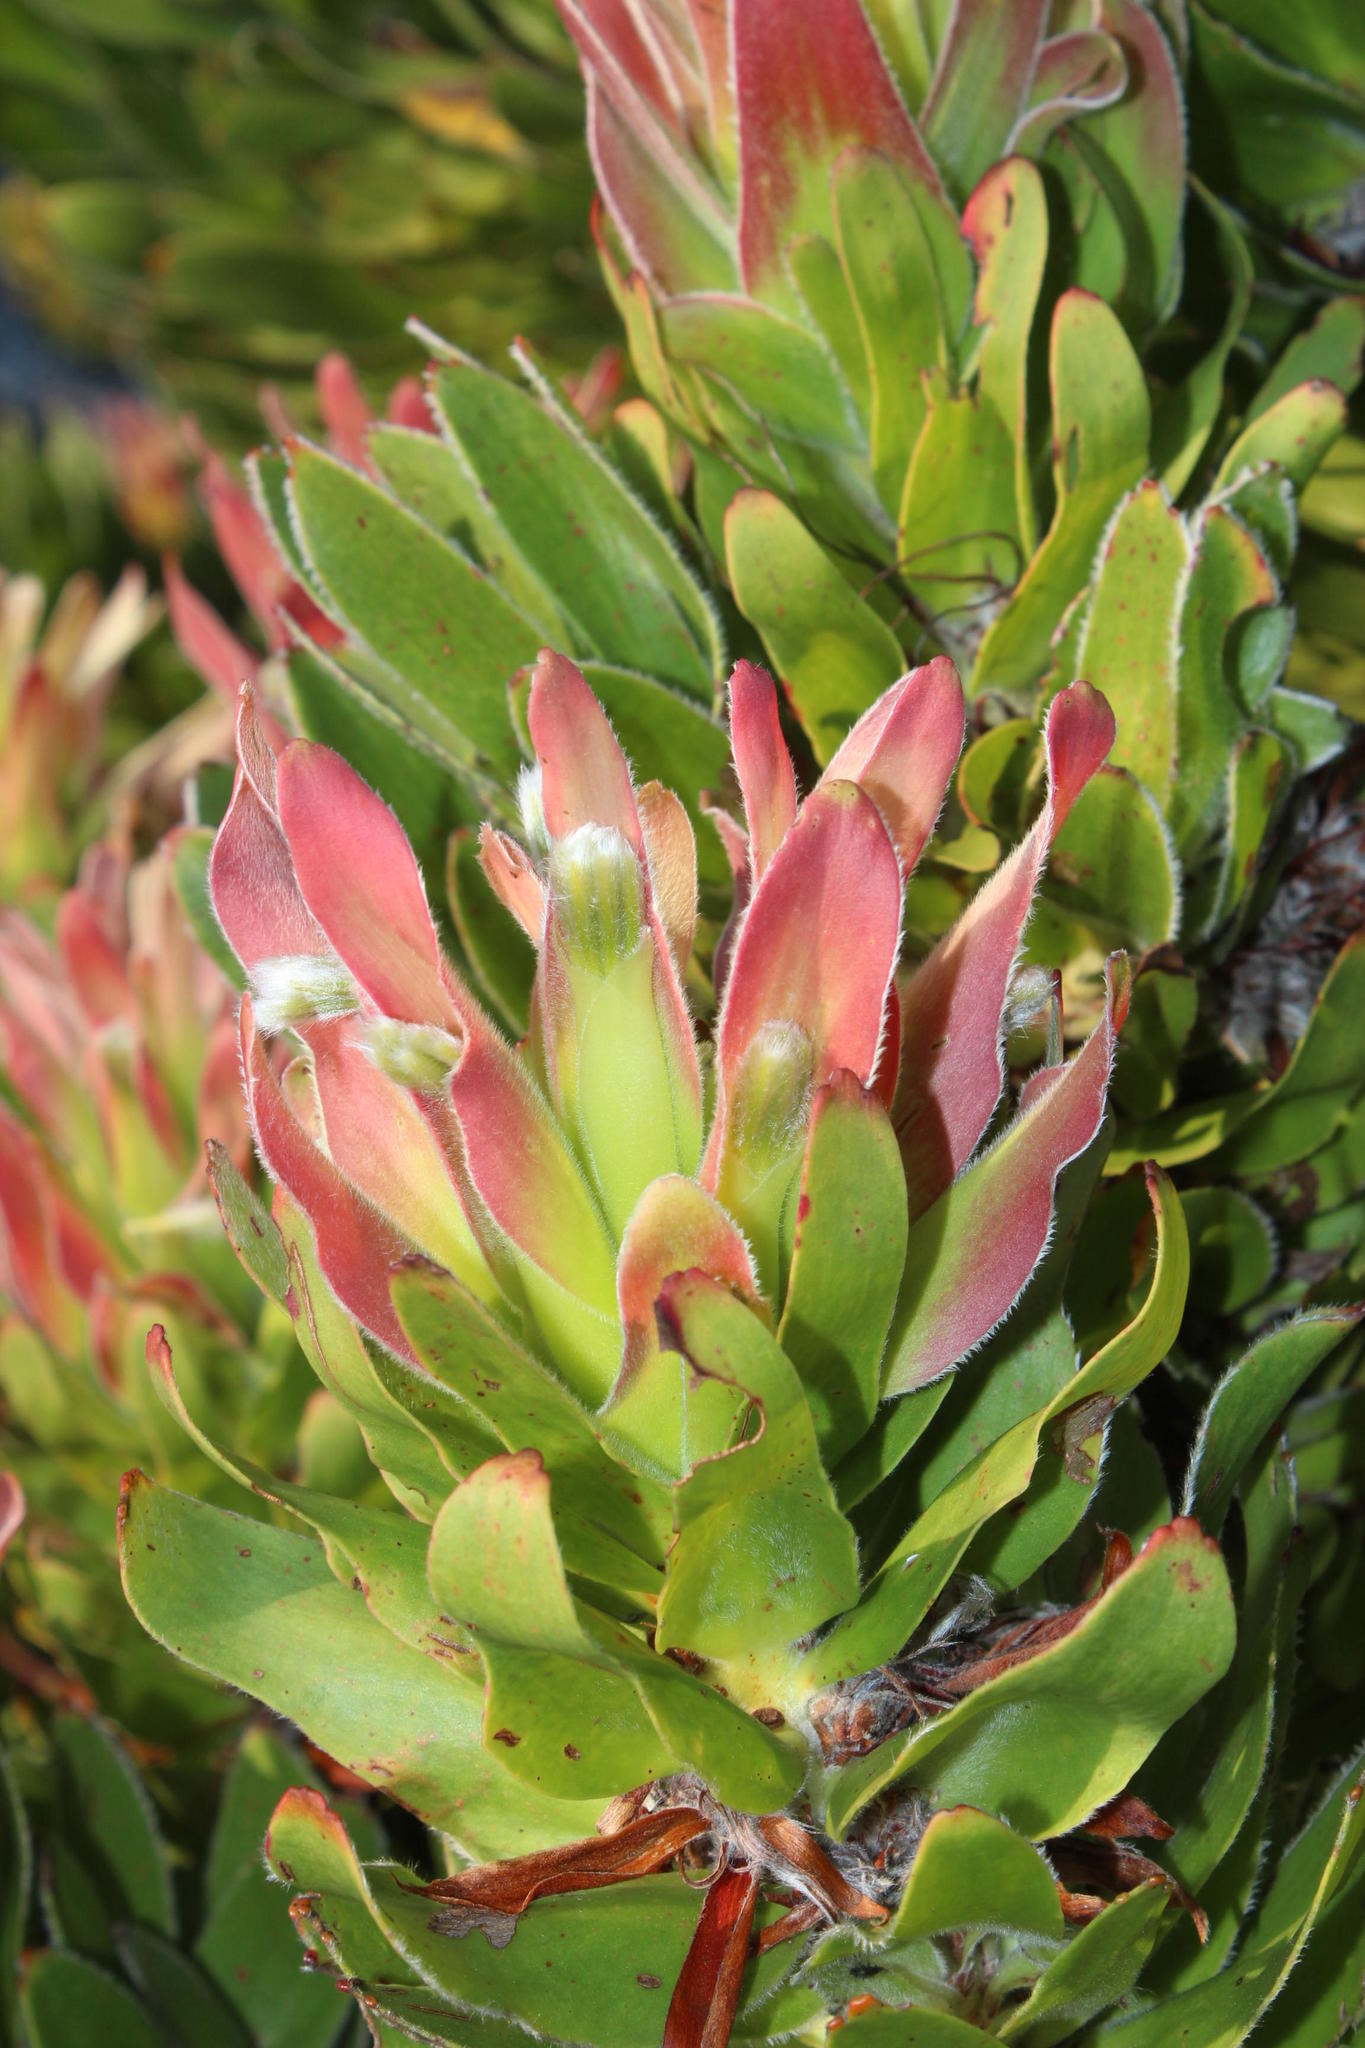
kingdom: Plantae
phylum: Tracheophyta
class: Magnoliopsida
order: Proteales
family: Proteaceae
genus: Mimetes
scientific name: Mimetes fimbriifolius
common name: Fringed bottlebrush
